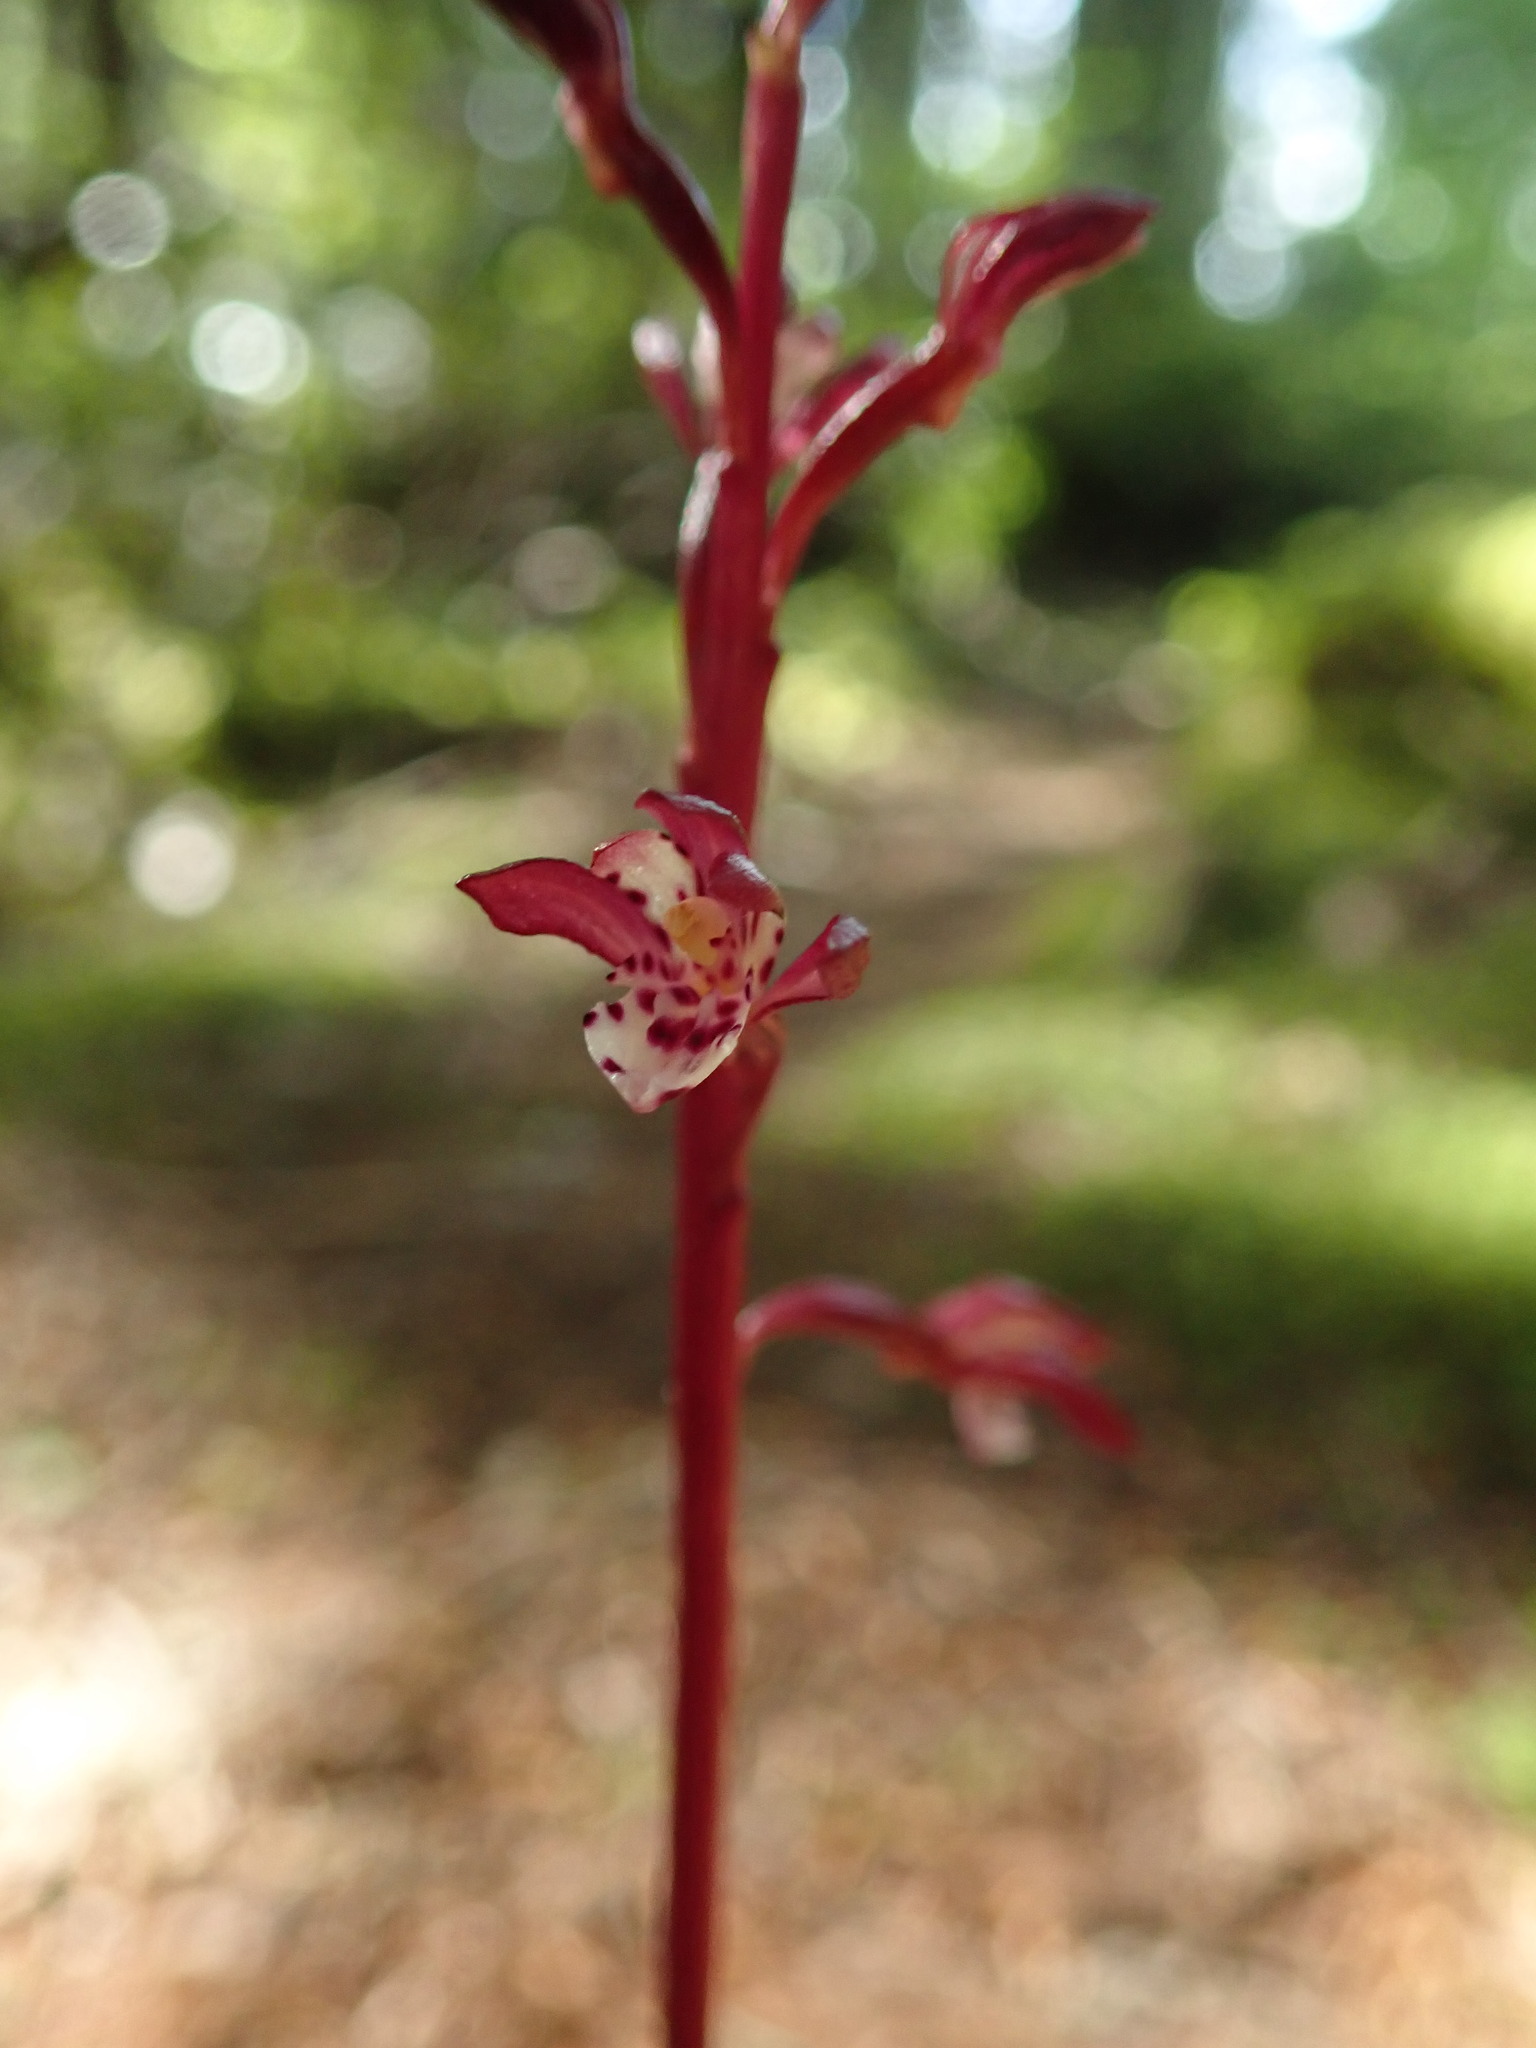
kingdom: Plantae
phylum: Tracheophyta
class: Liliopsida
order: Asparagales
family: Orchidaceae
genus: Corallorhiza
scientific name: Corallorhiza maculata
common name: Spotted coralroot
